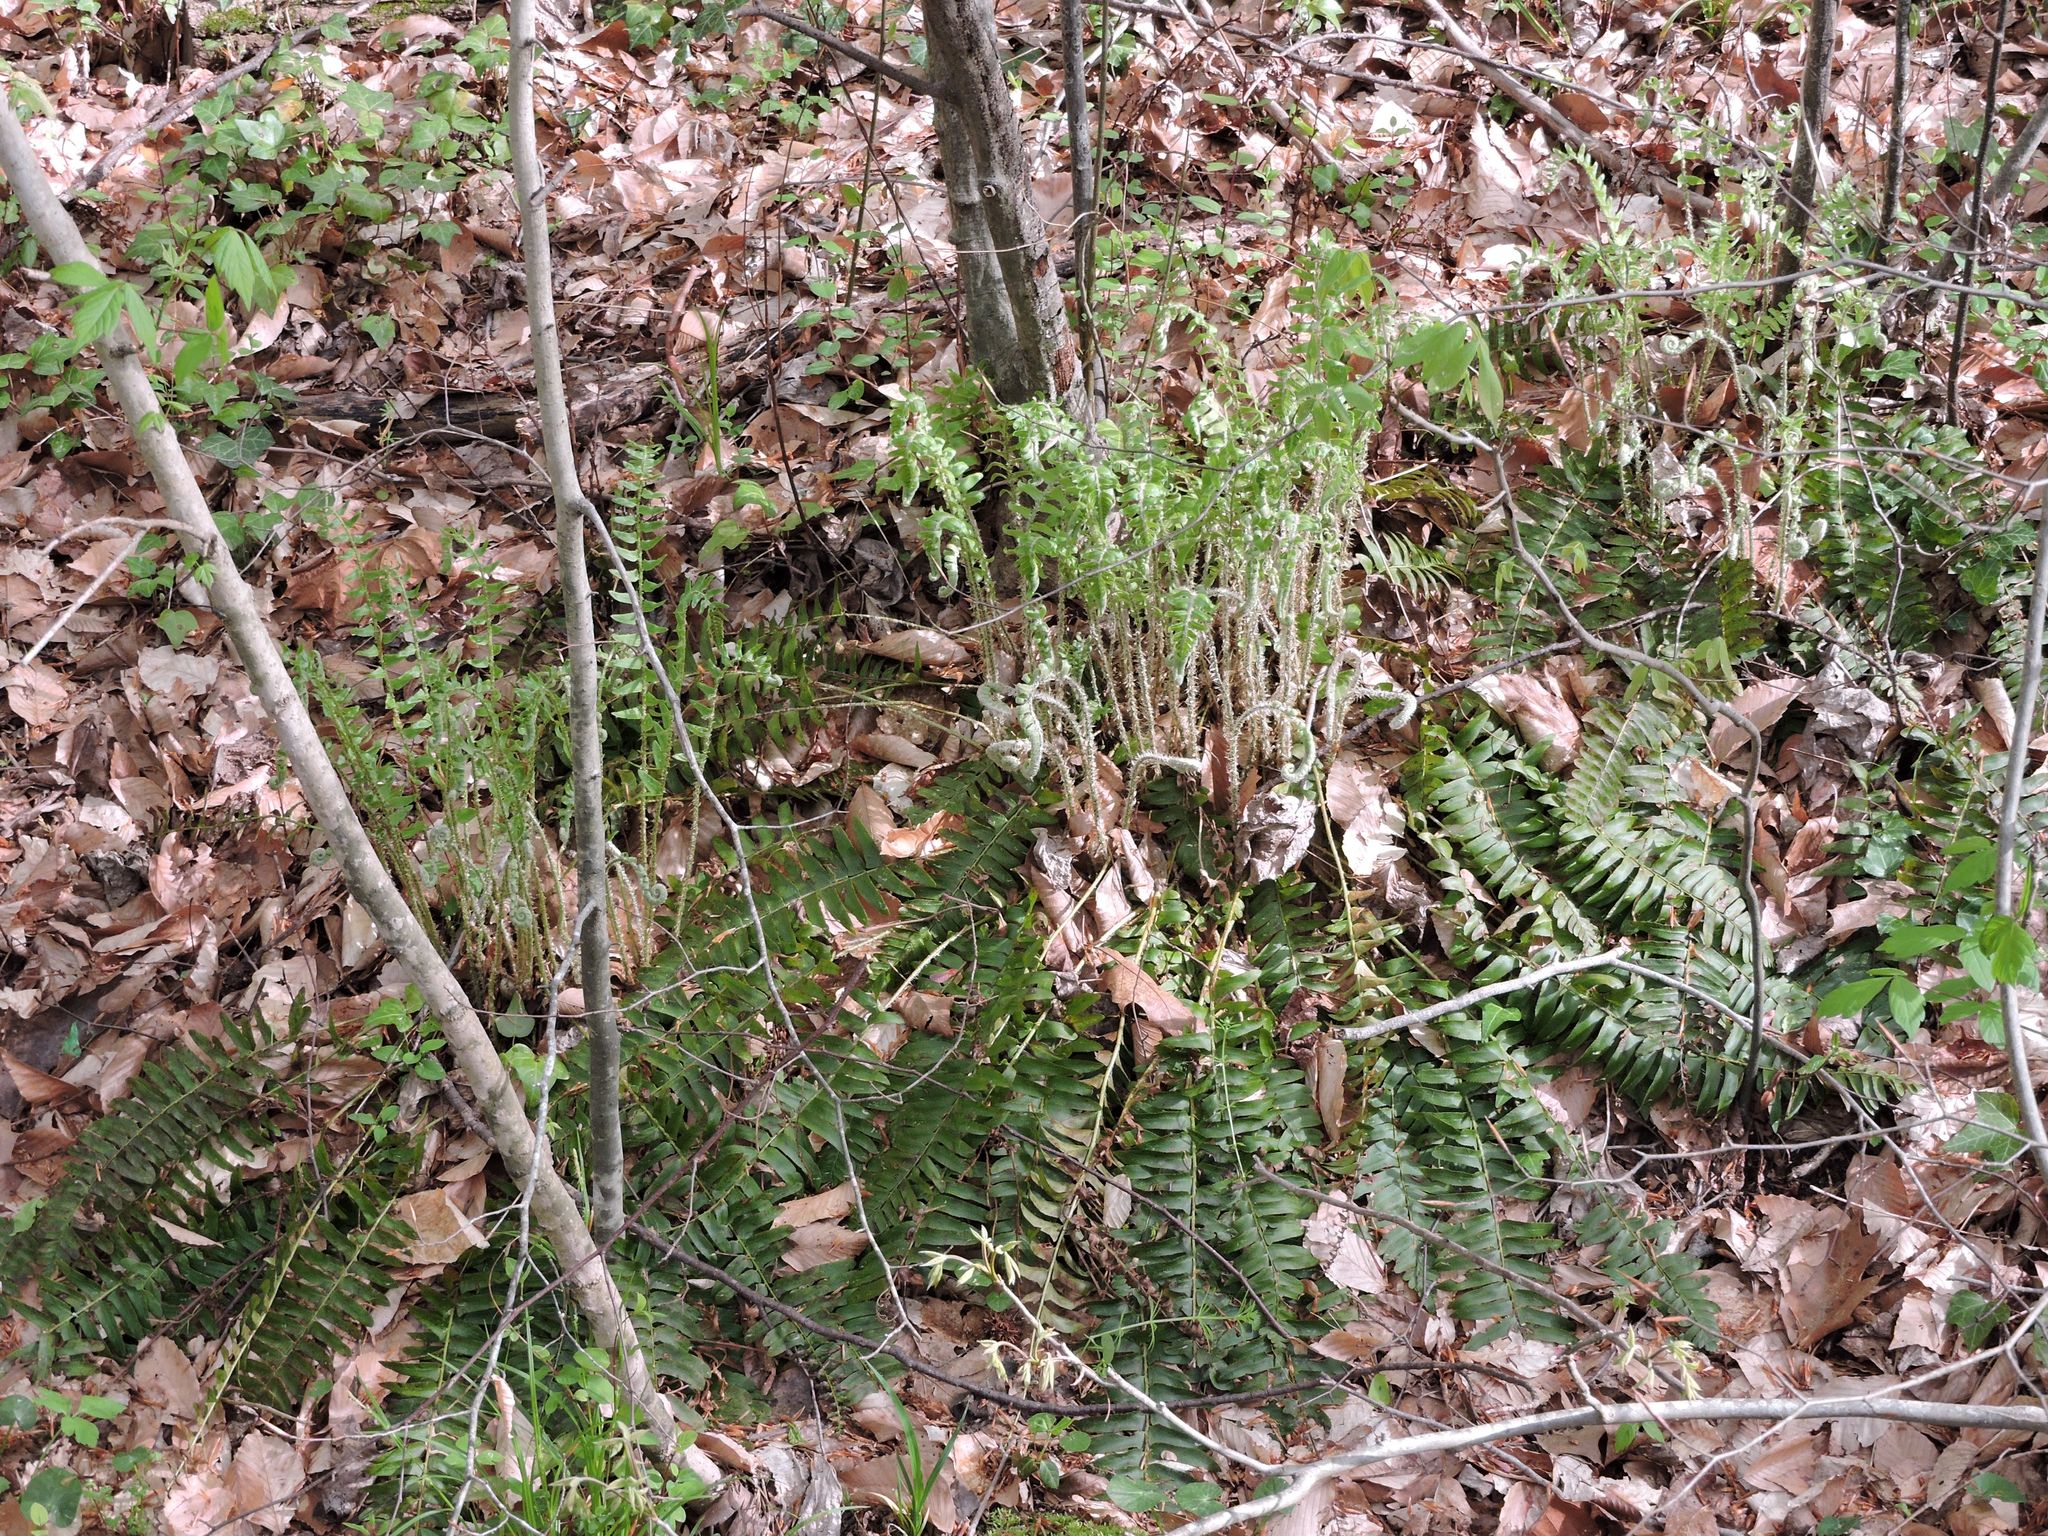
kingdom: Plantae
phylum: Tracheophyta
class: Polypodiopsida
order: Polypodiales
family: Dryopteridaceae
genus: Polystichum
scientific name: Polystichum acrostichoides
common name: Christmas fern
